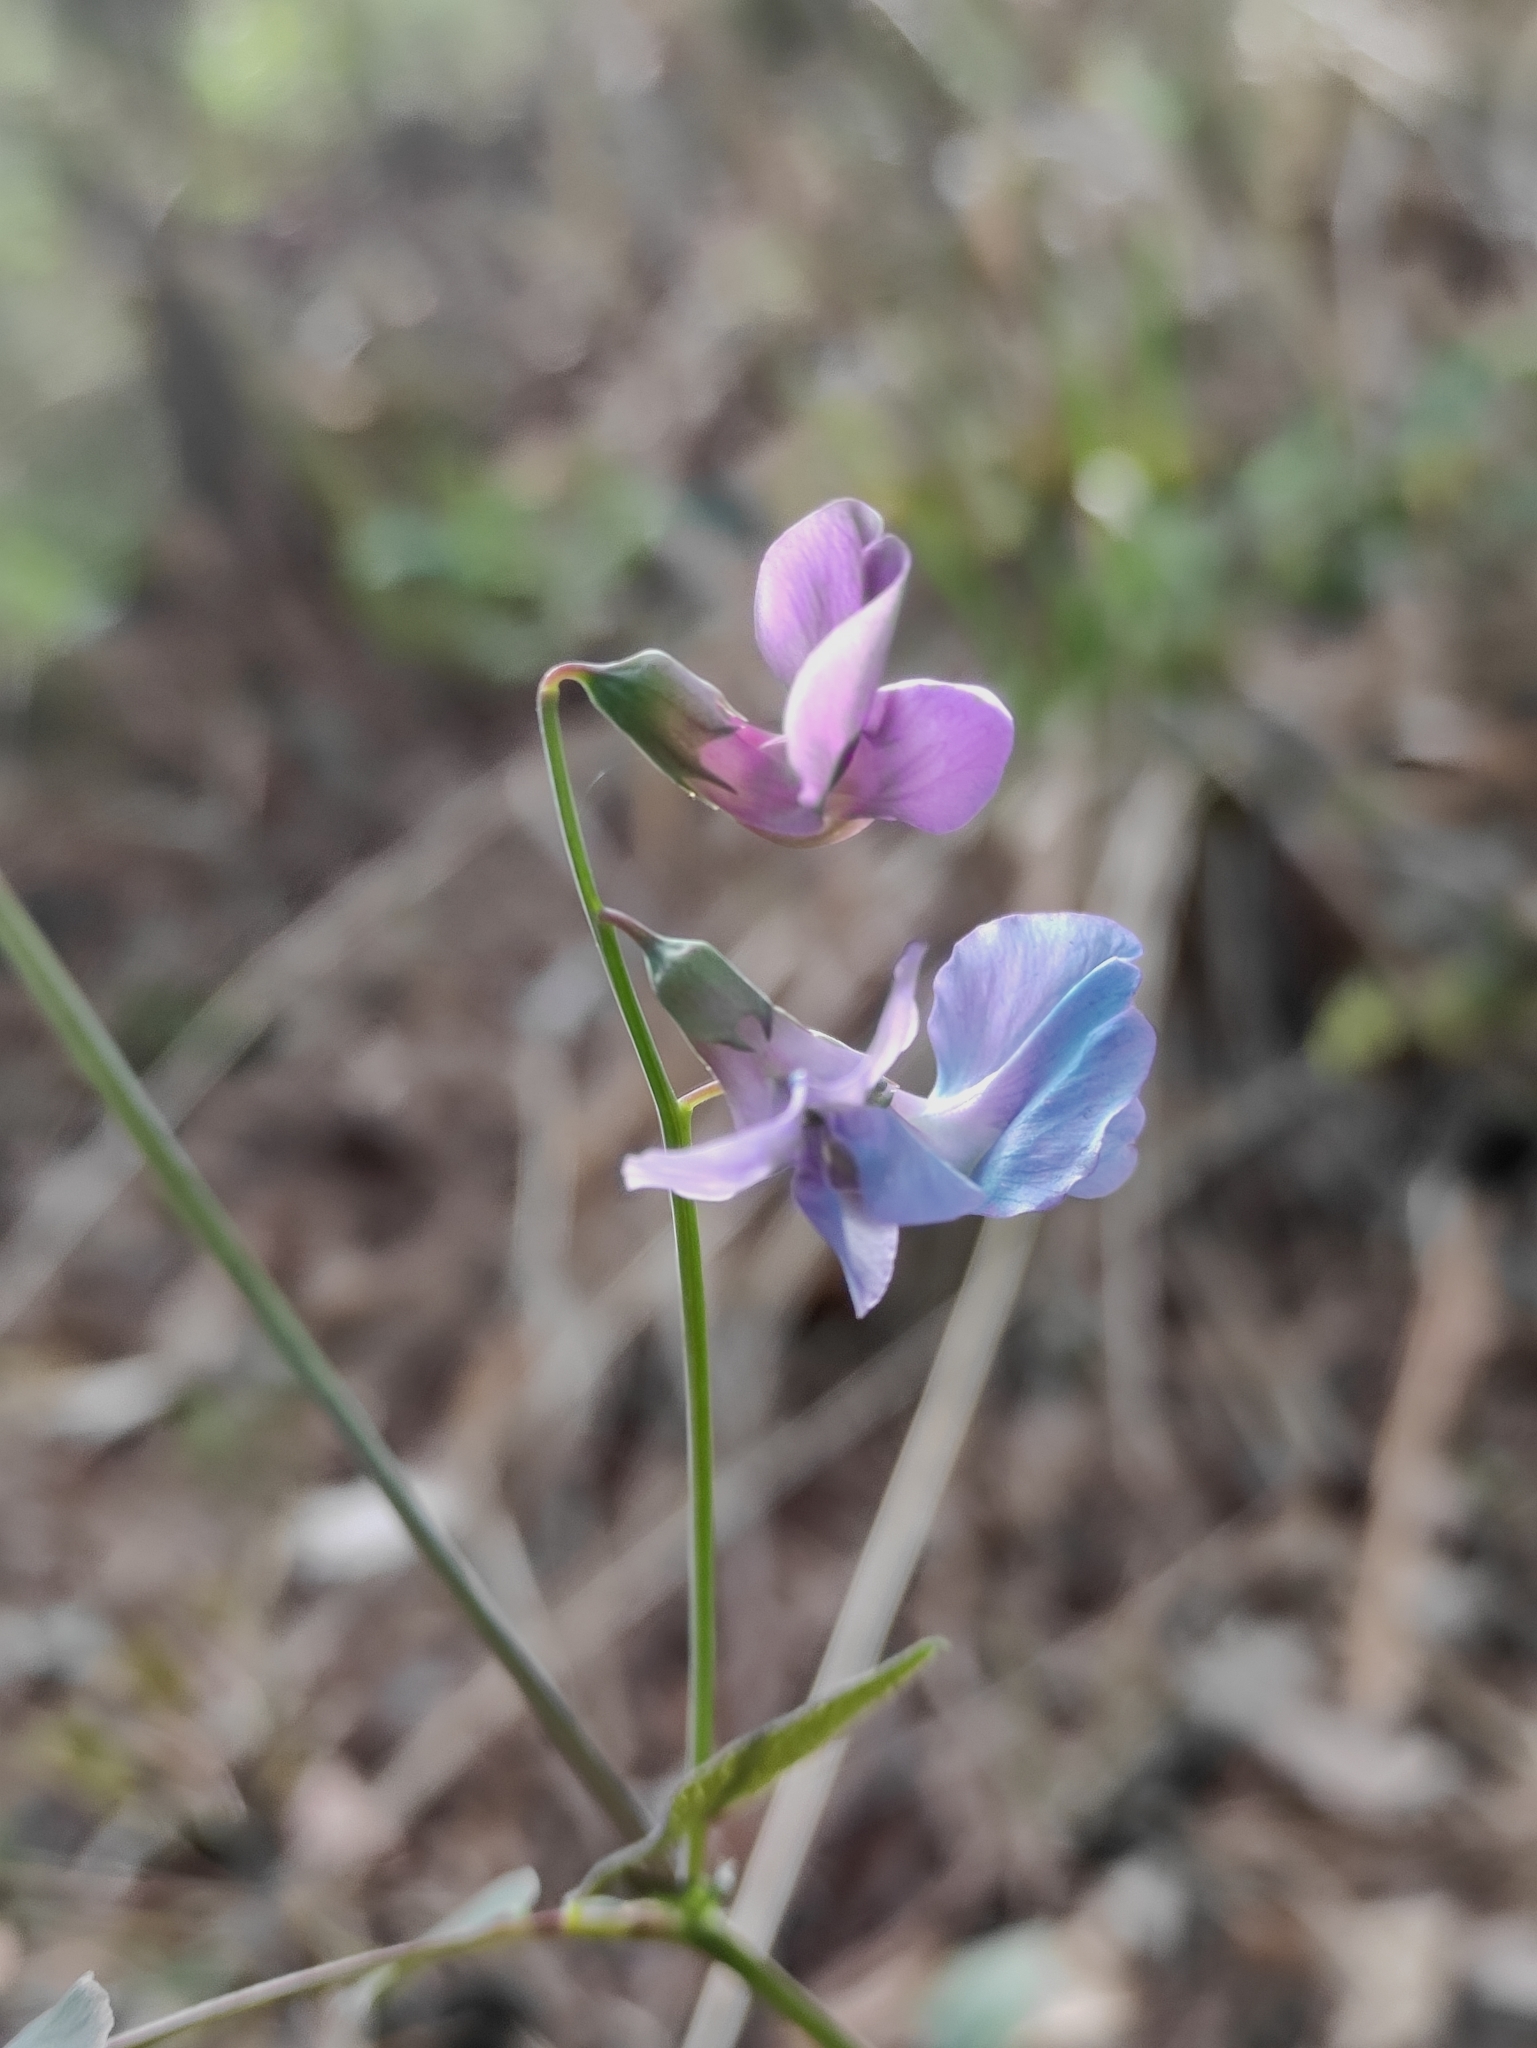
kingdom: Plantae
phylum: Tracheophyta
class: Magnoliopsida
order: Fabales
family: Fabaceae
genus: Lathyrus
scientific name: Lathyrus humilis
